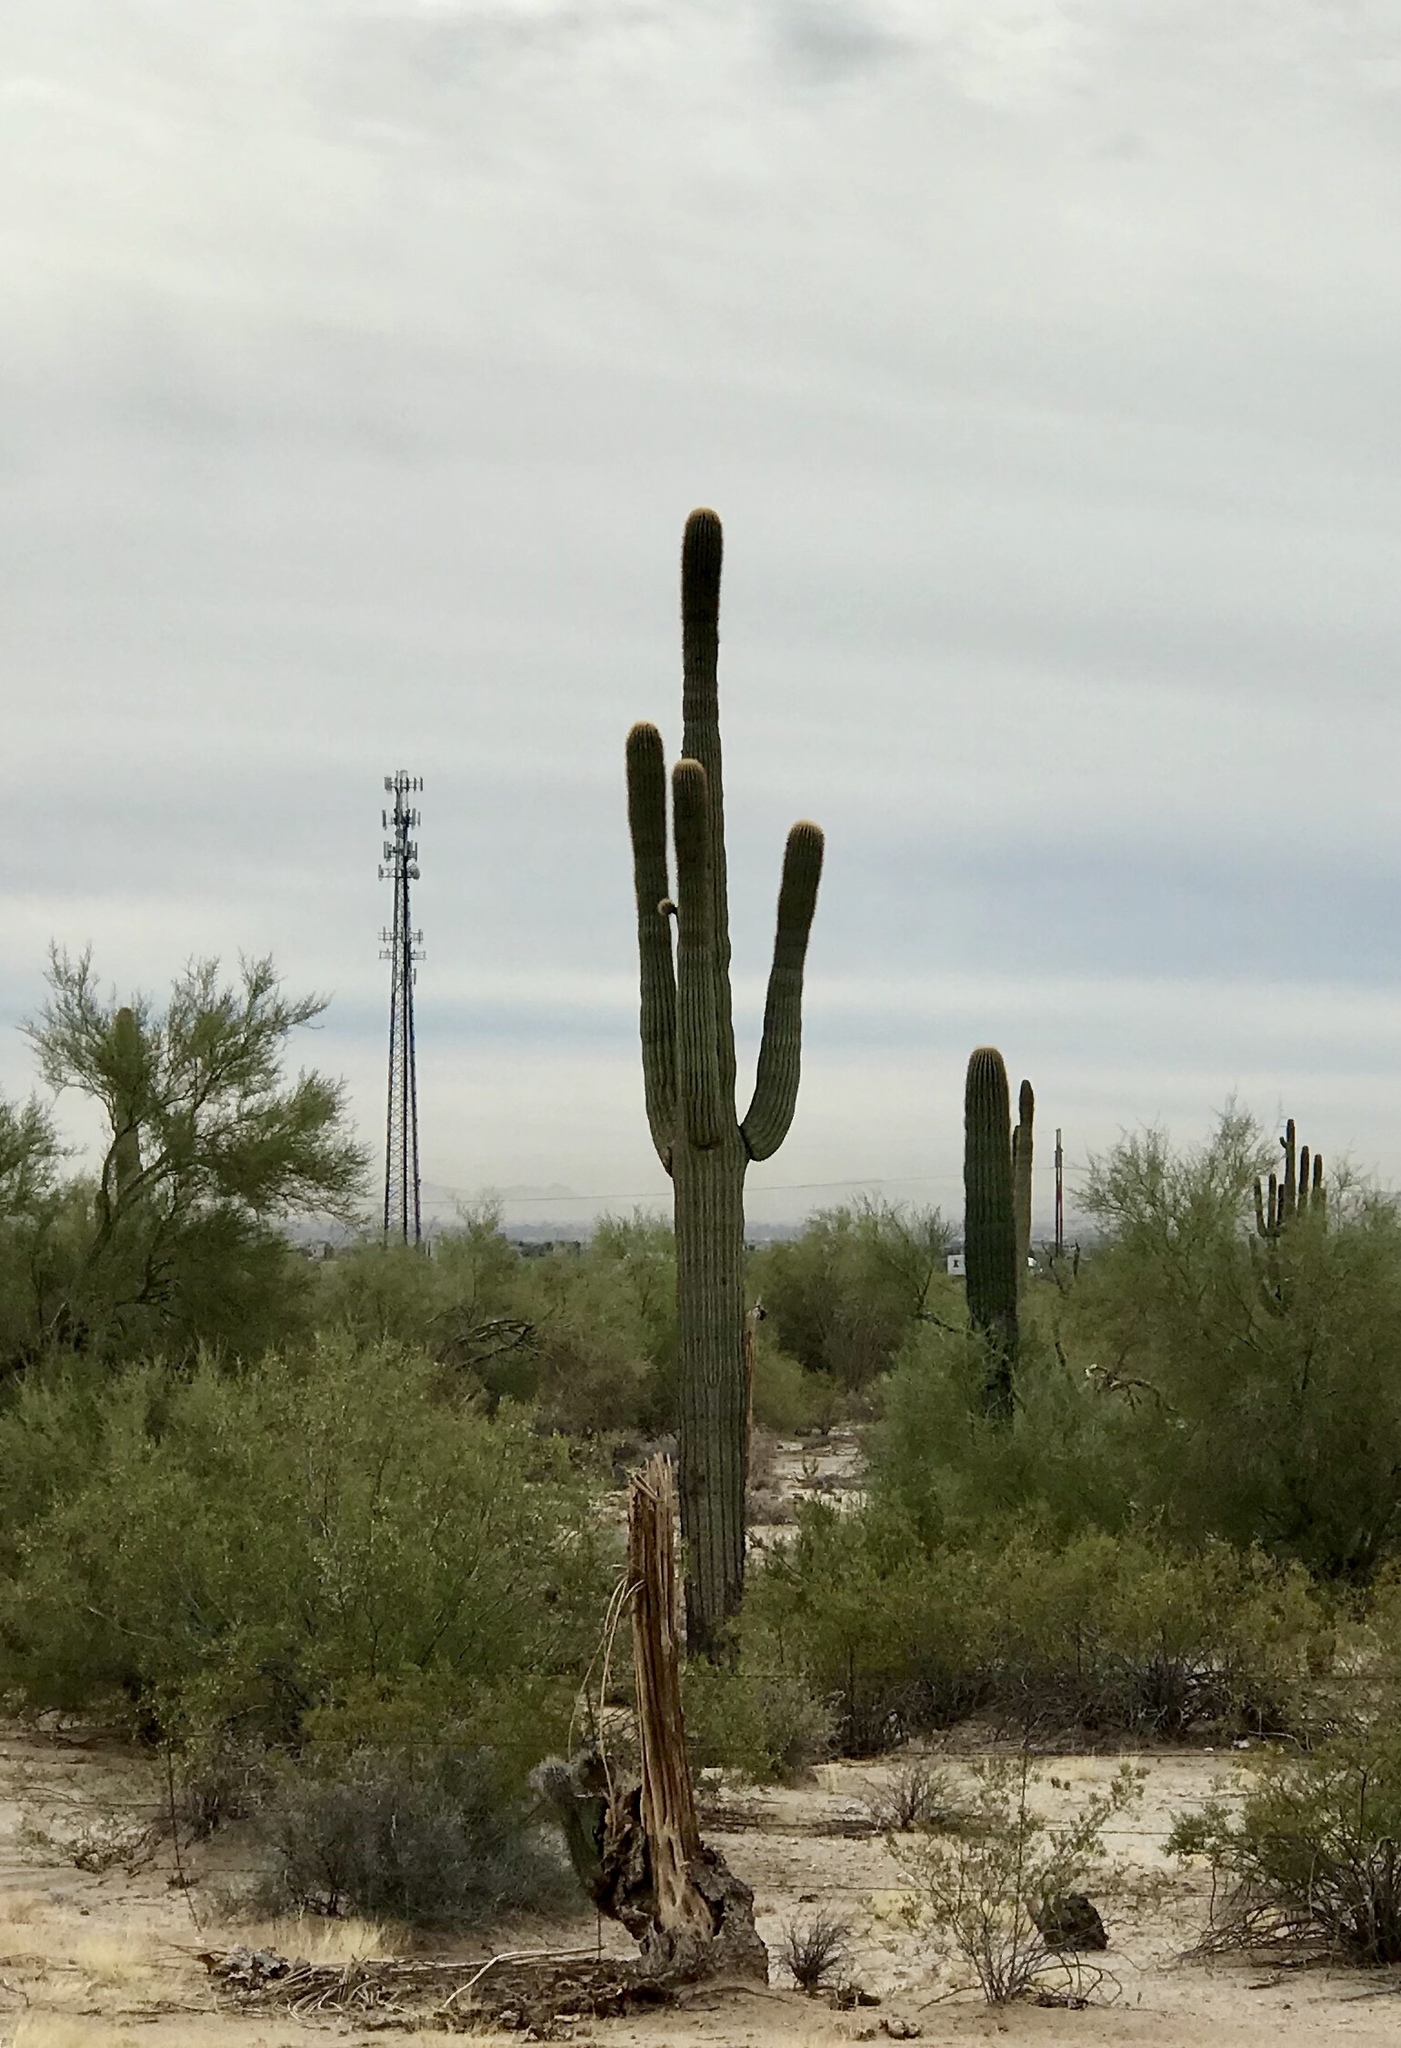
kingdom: Plantae
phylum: Tracheophyta
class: Magnoliopsida
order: Caryophyllales
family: Cactaceae
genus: Carnegiea
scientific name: Carnegiea gigantea
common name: Saguaro
